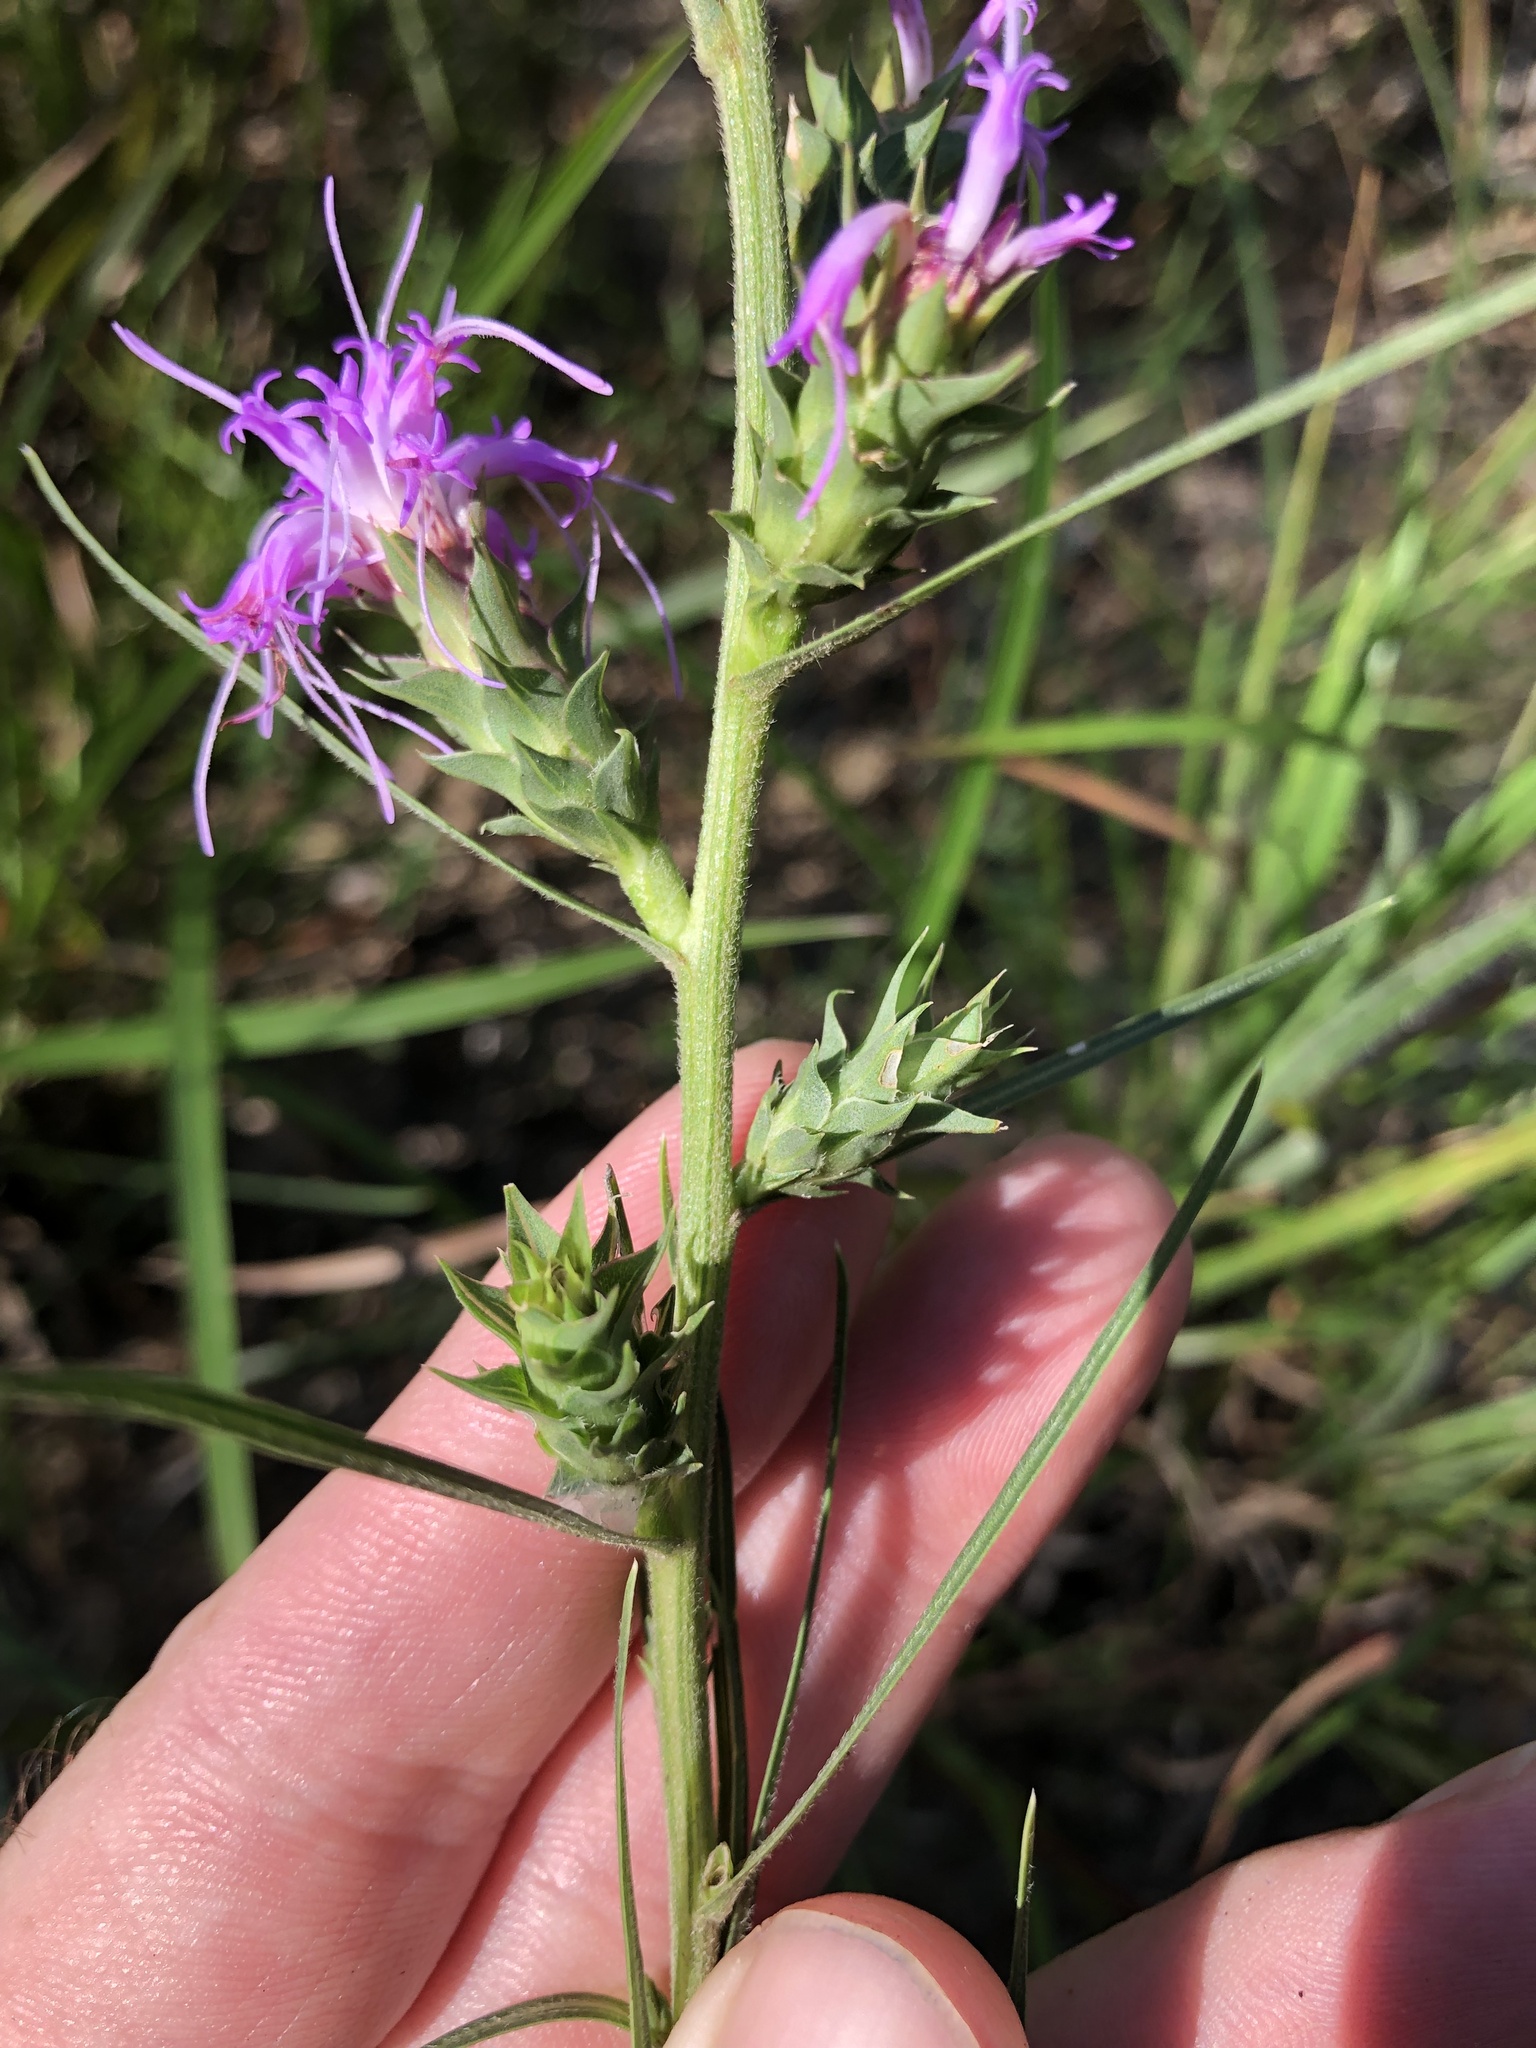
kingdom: Plantae
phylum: Tracheophyta
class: Magnoliopsida
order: Asterales
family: Asteraceae
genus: Liatris
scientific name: Liatris squarrosa
